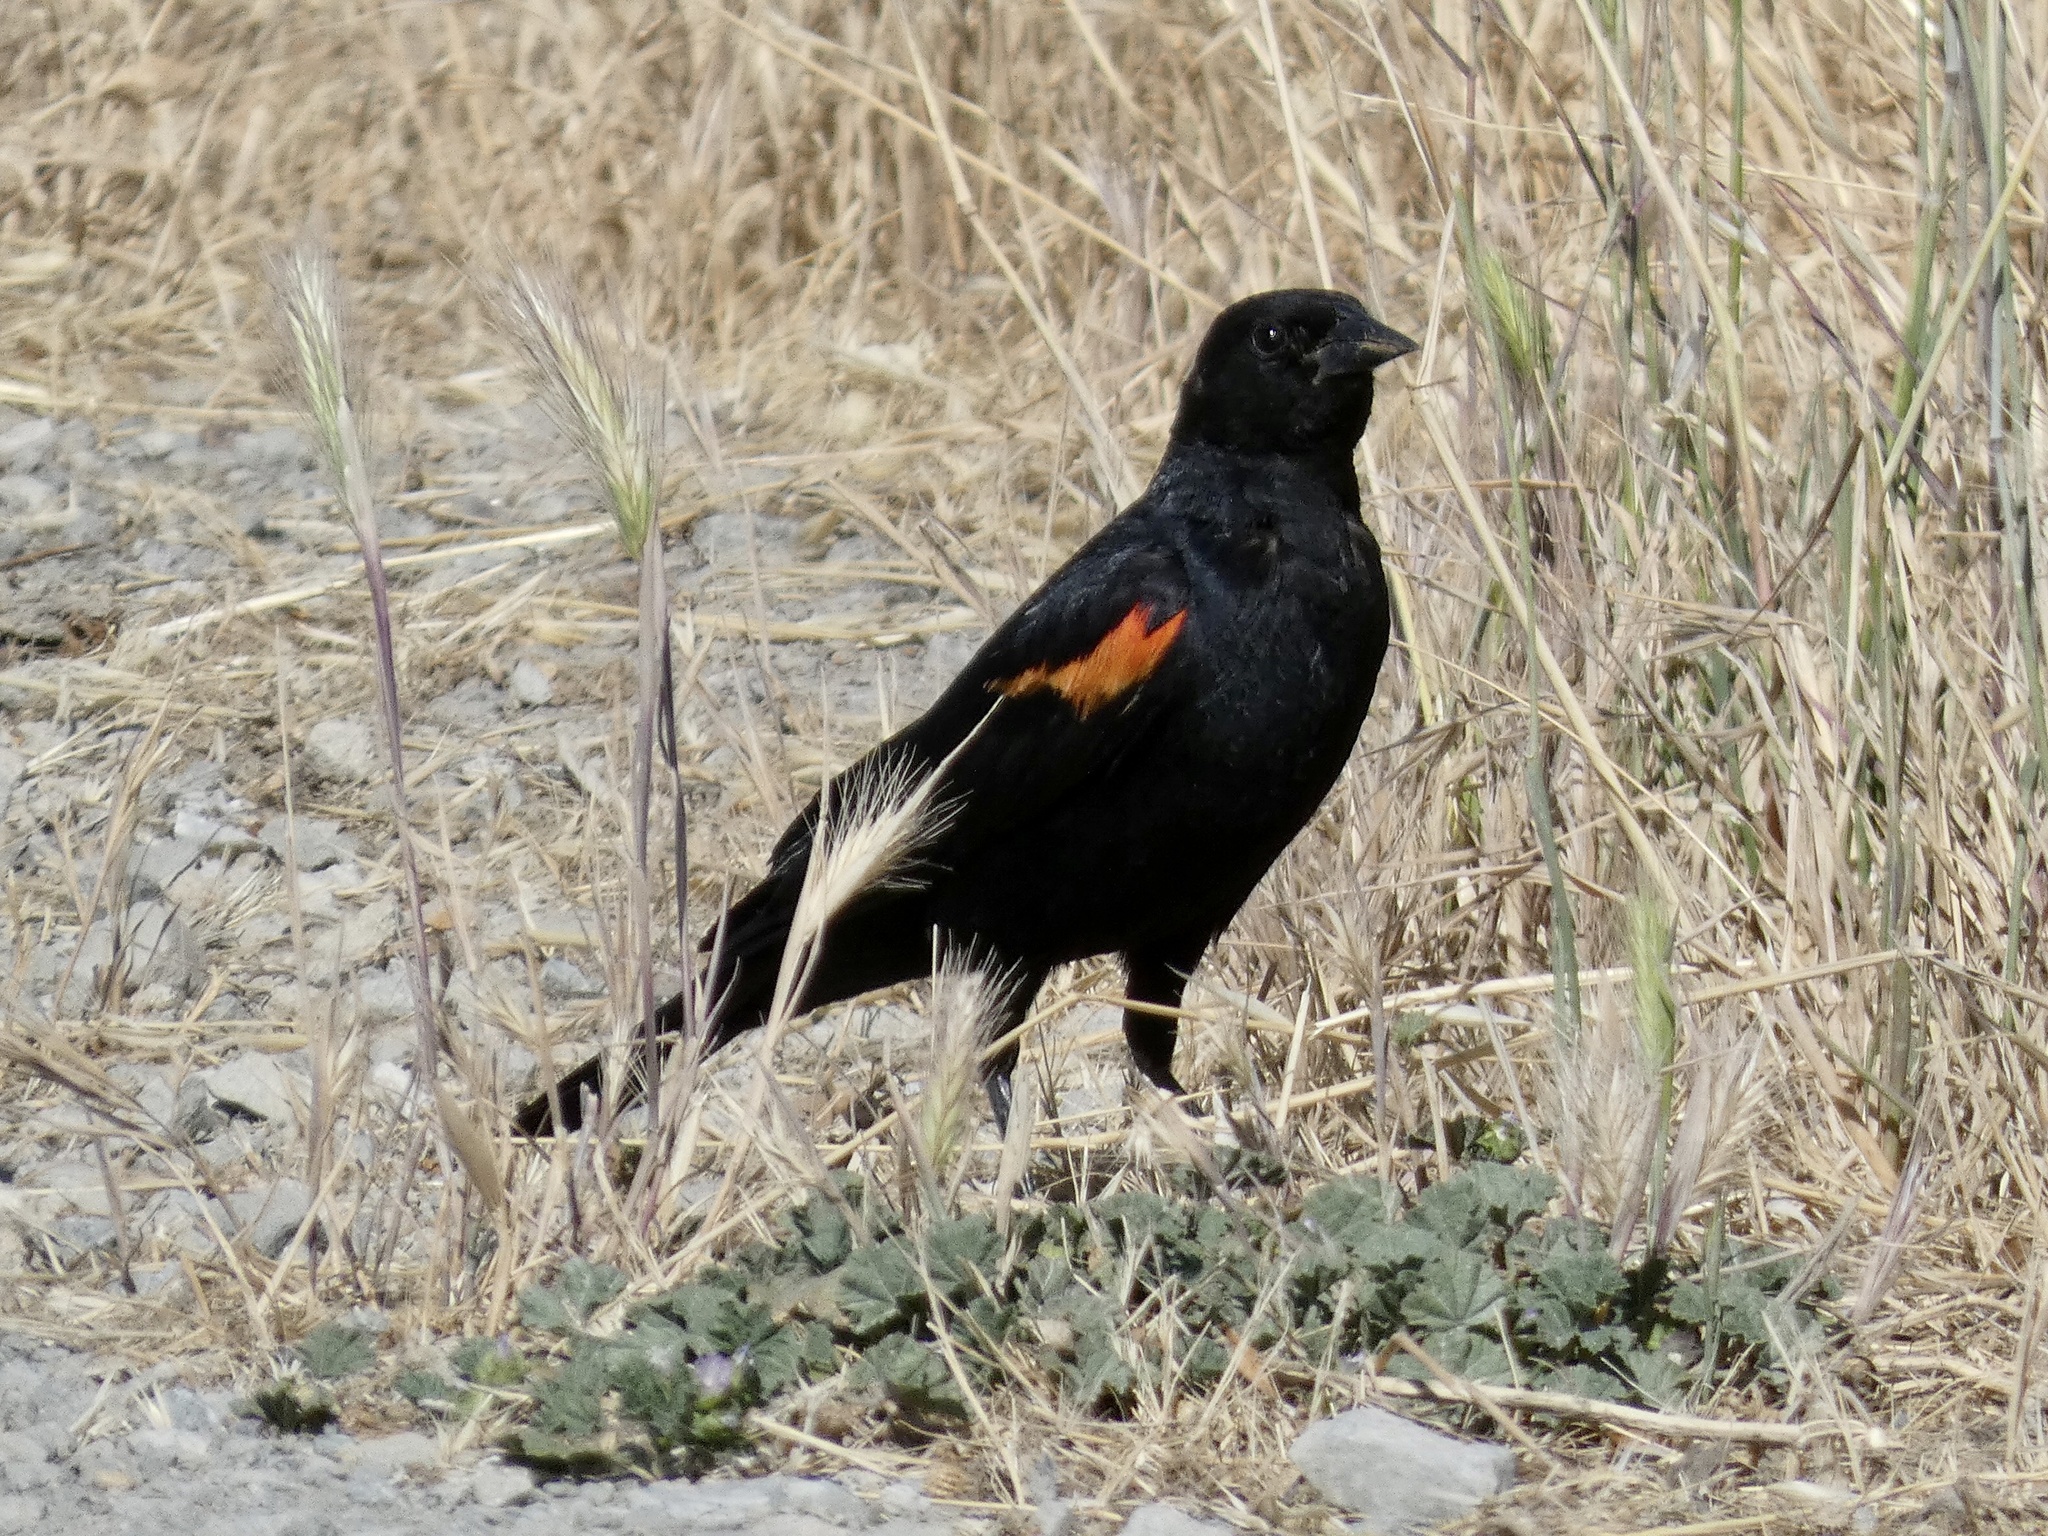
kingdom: Animalia
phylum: Chordata
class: Aves
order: Passeriformes
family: Icteridae
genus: Agelaius
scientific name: Agelaius phoeniceus
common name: Red-winged blackbird
